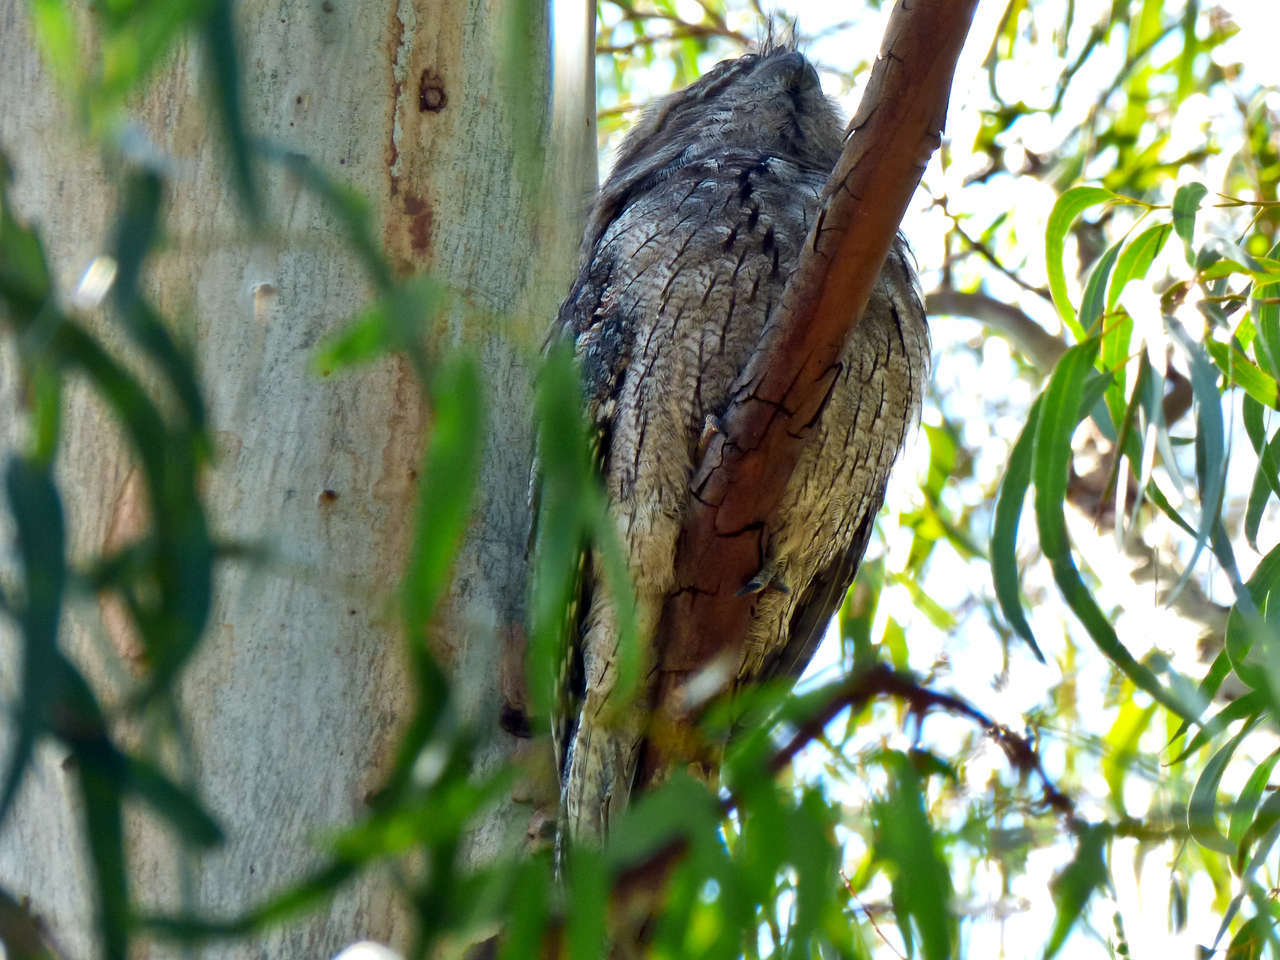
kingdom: Animalia
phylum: Chordata
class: Aves
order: Caprimulgiformes
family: Podargidae
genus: Podargus
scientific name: Podargus strigoides
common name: Tawny frogmouth
